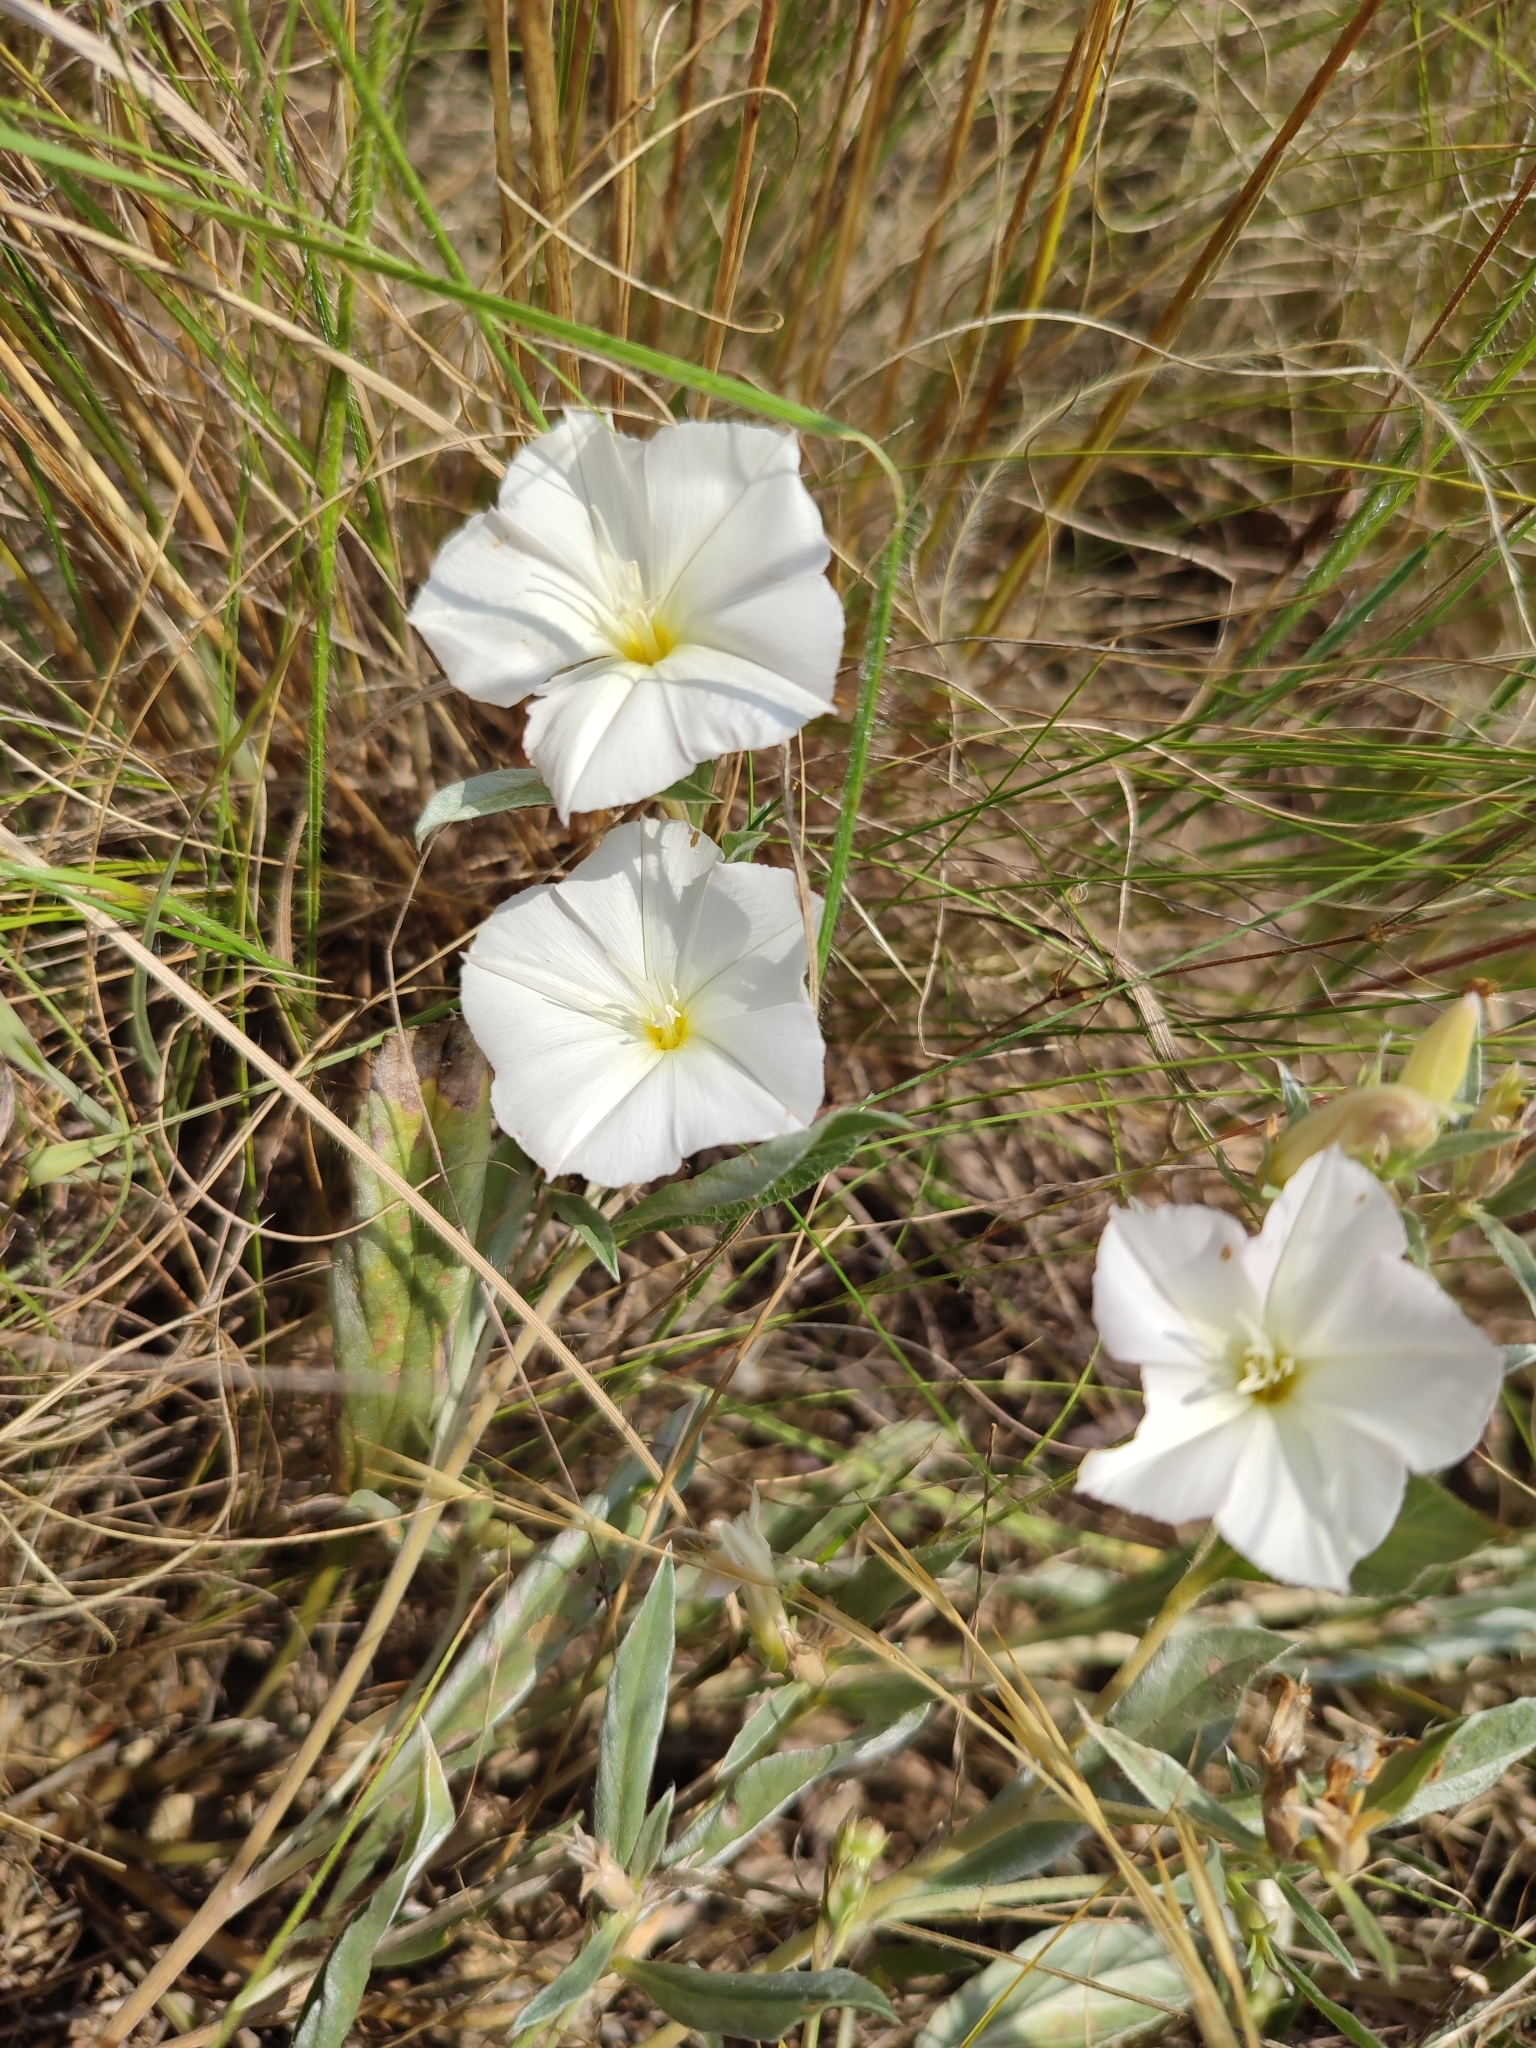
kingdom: Plantae
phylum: Tracheophyta
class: Magnoliopsida
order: Solanales
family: Convolvulaceae
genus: Convolvulus
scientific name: Convolvulus lineatus
